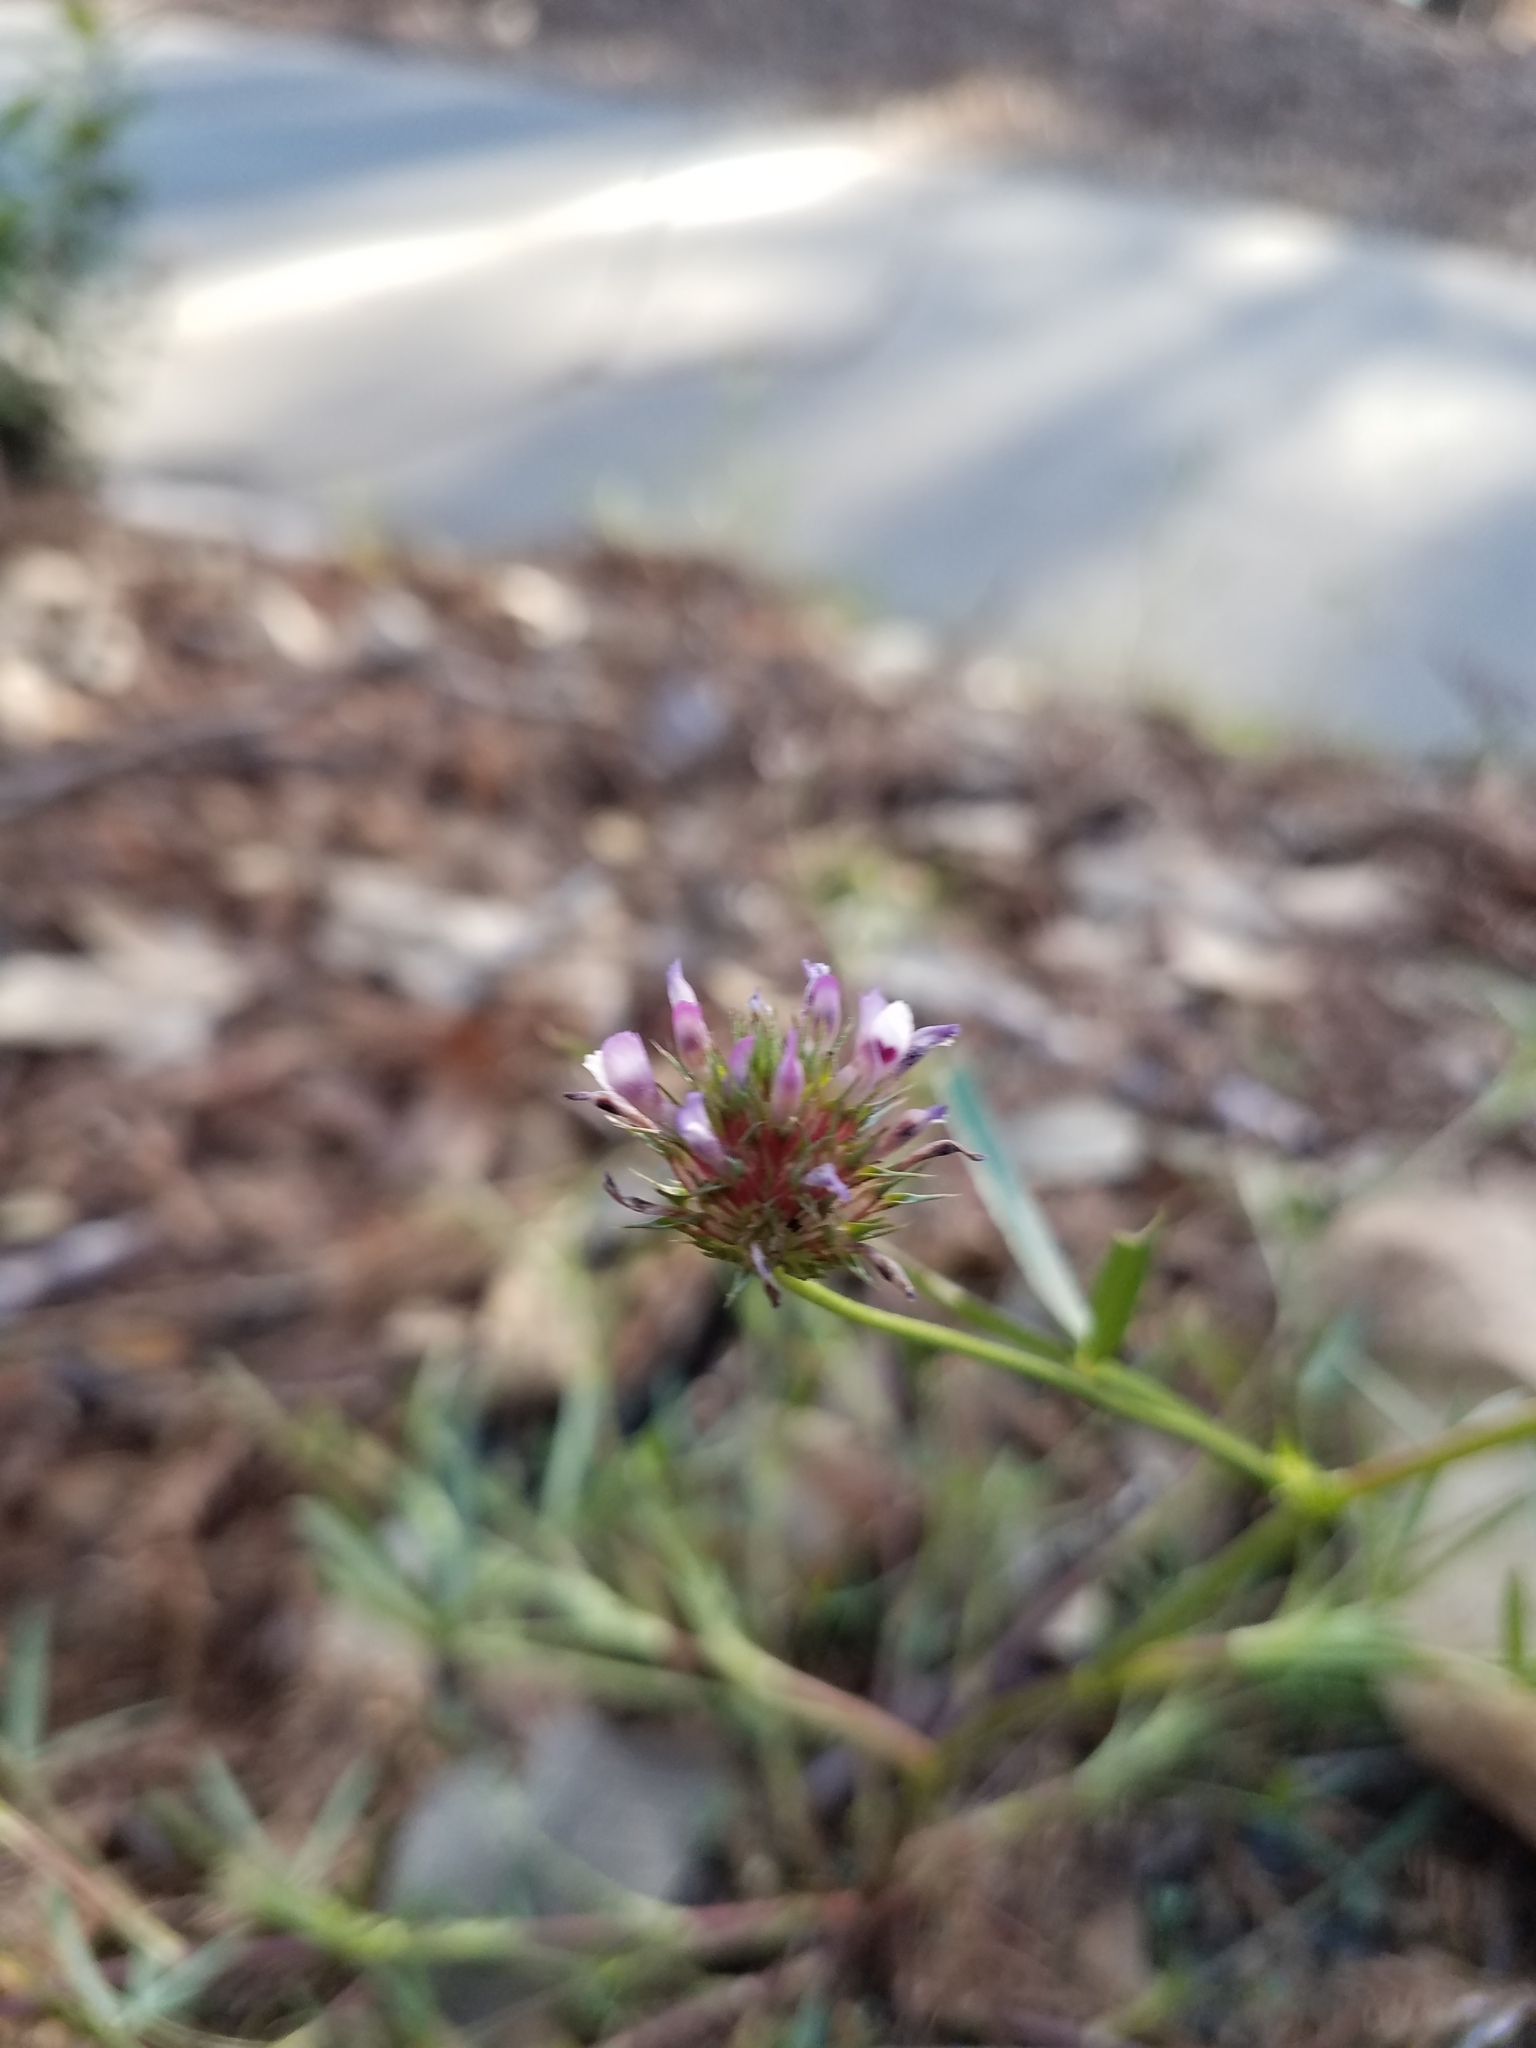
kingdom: Plantae
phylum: Tracheophyta
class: Magnoliopsida
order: Fabales
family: Fabaceae
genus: Trifolium
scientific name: Trifolium willdenovii
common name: Tomcat clover
